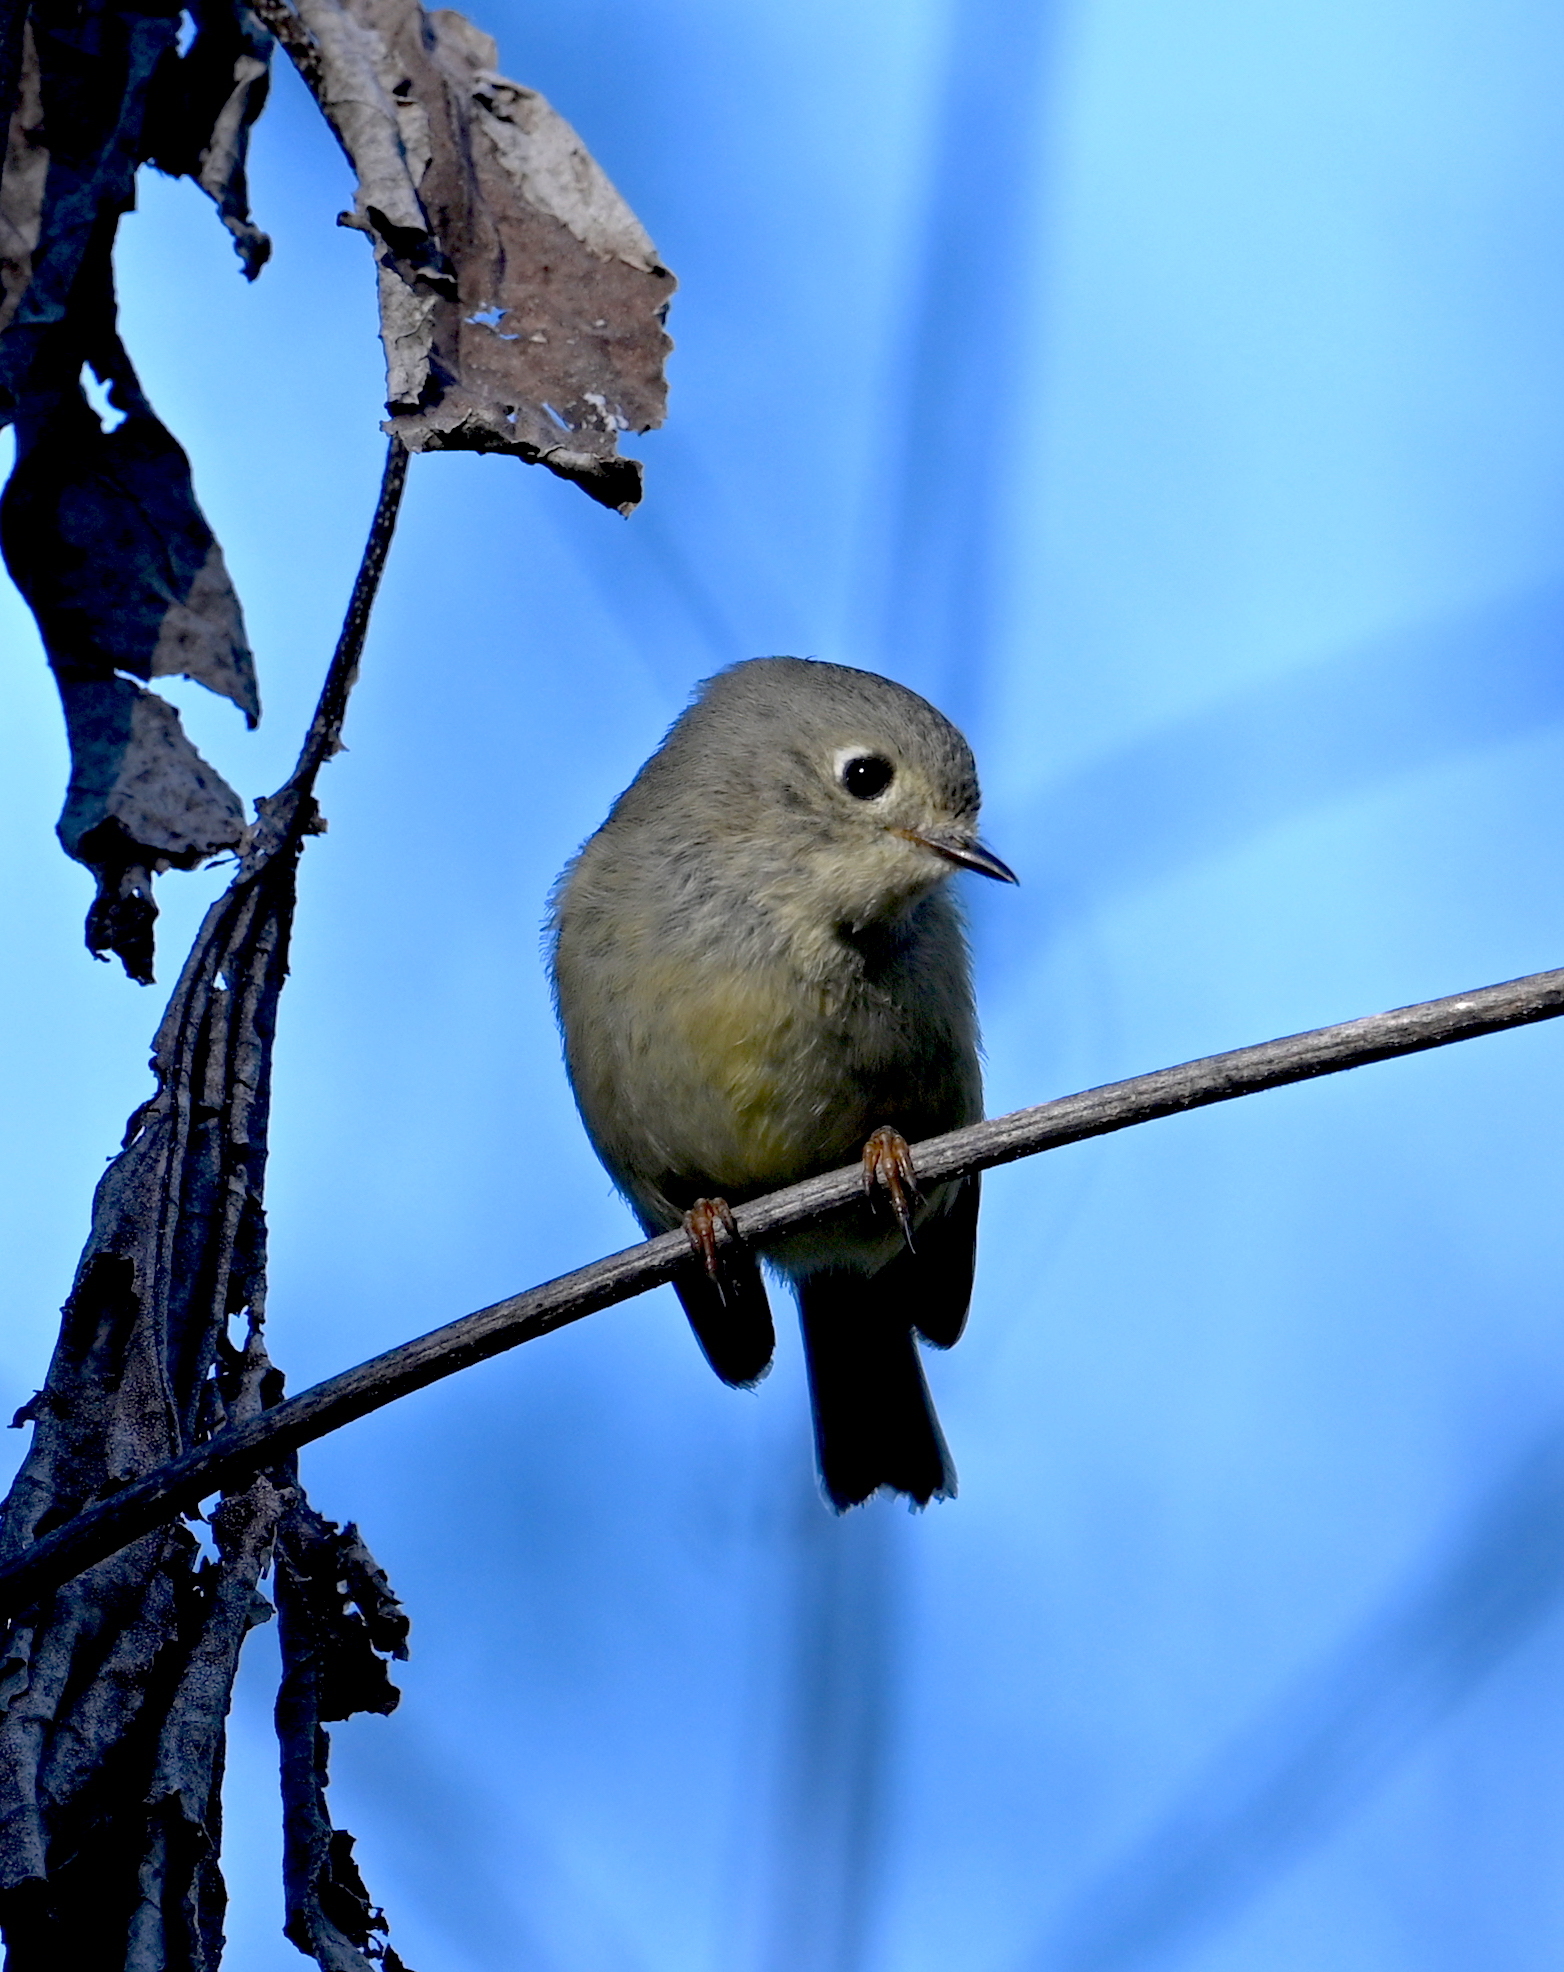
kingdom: Animalia
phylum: Chordata
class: Aves
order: Passeriformes
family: Regulidae
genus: Regulus
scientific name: Regulus calendula
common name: Ruby-crowned kinglet
